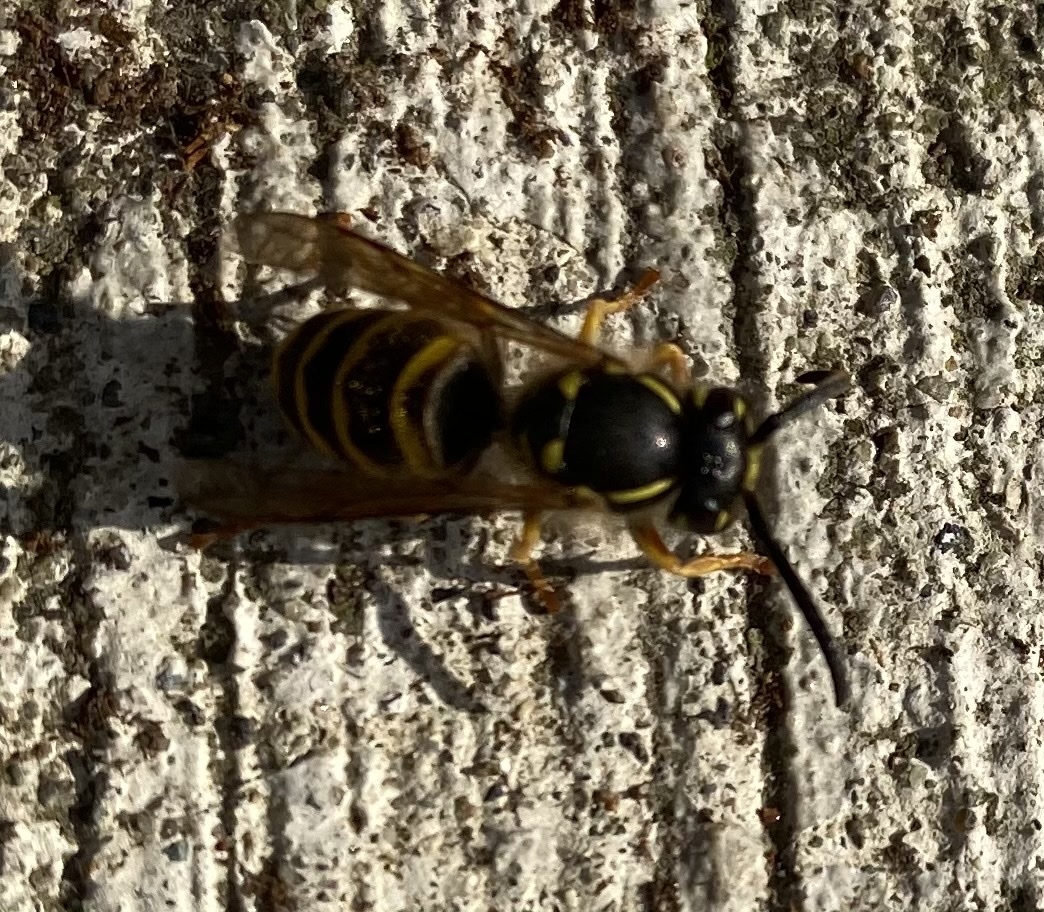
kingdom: Animalia
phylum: Arthropoda
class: Insecta
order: Hymenoptera
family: Vespidae
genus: Vespula
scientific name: Vespula alascensis
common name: Alaska yellowjacket
